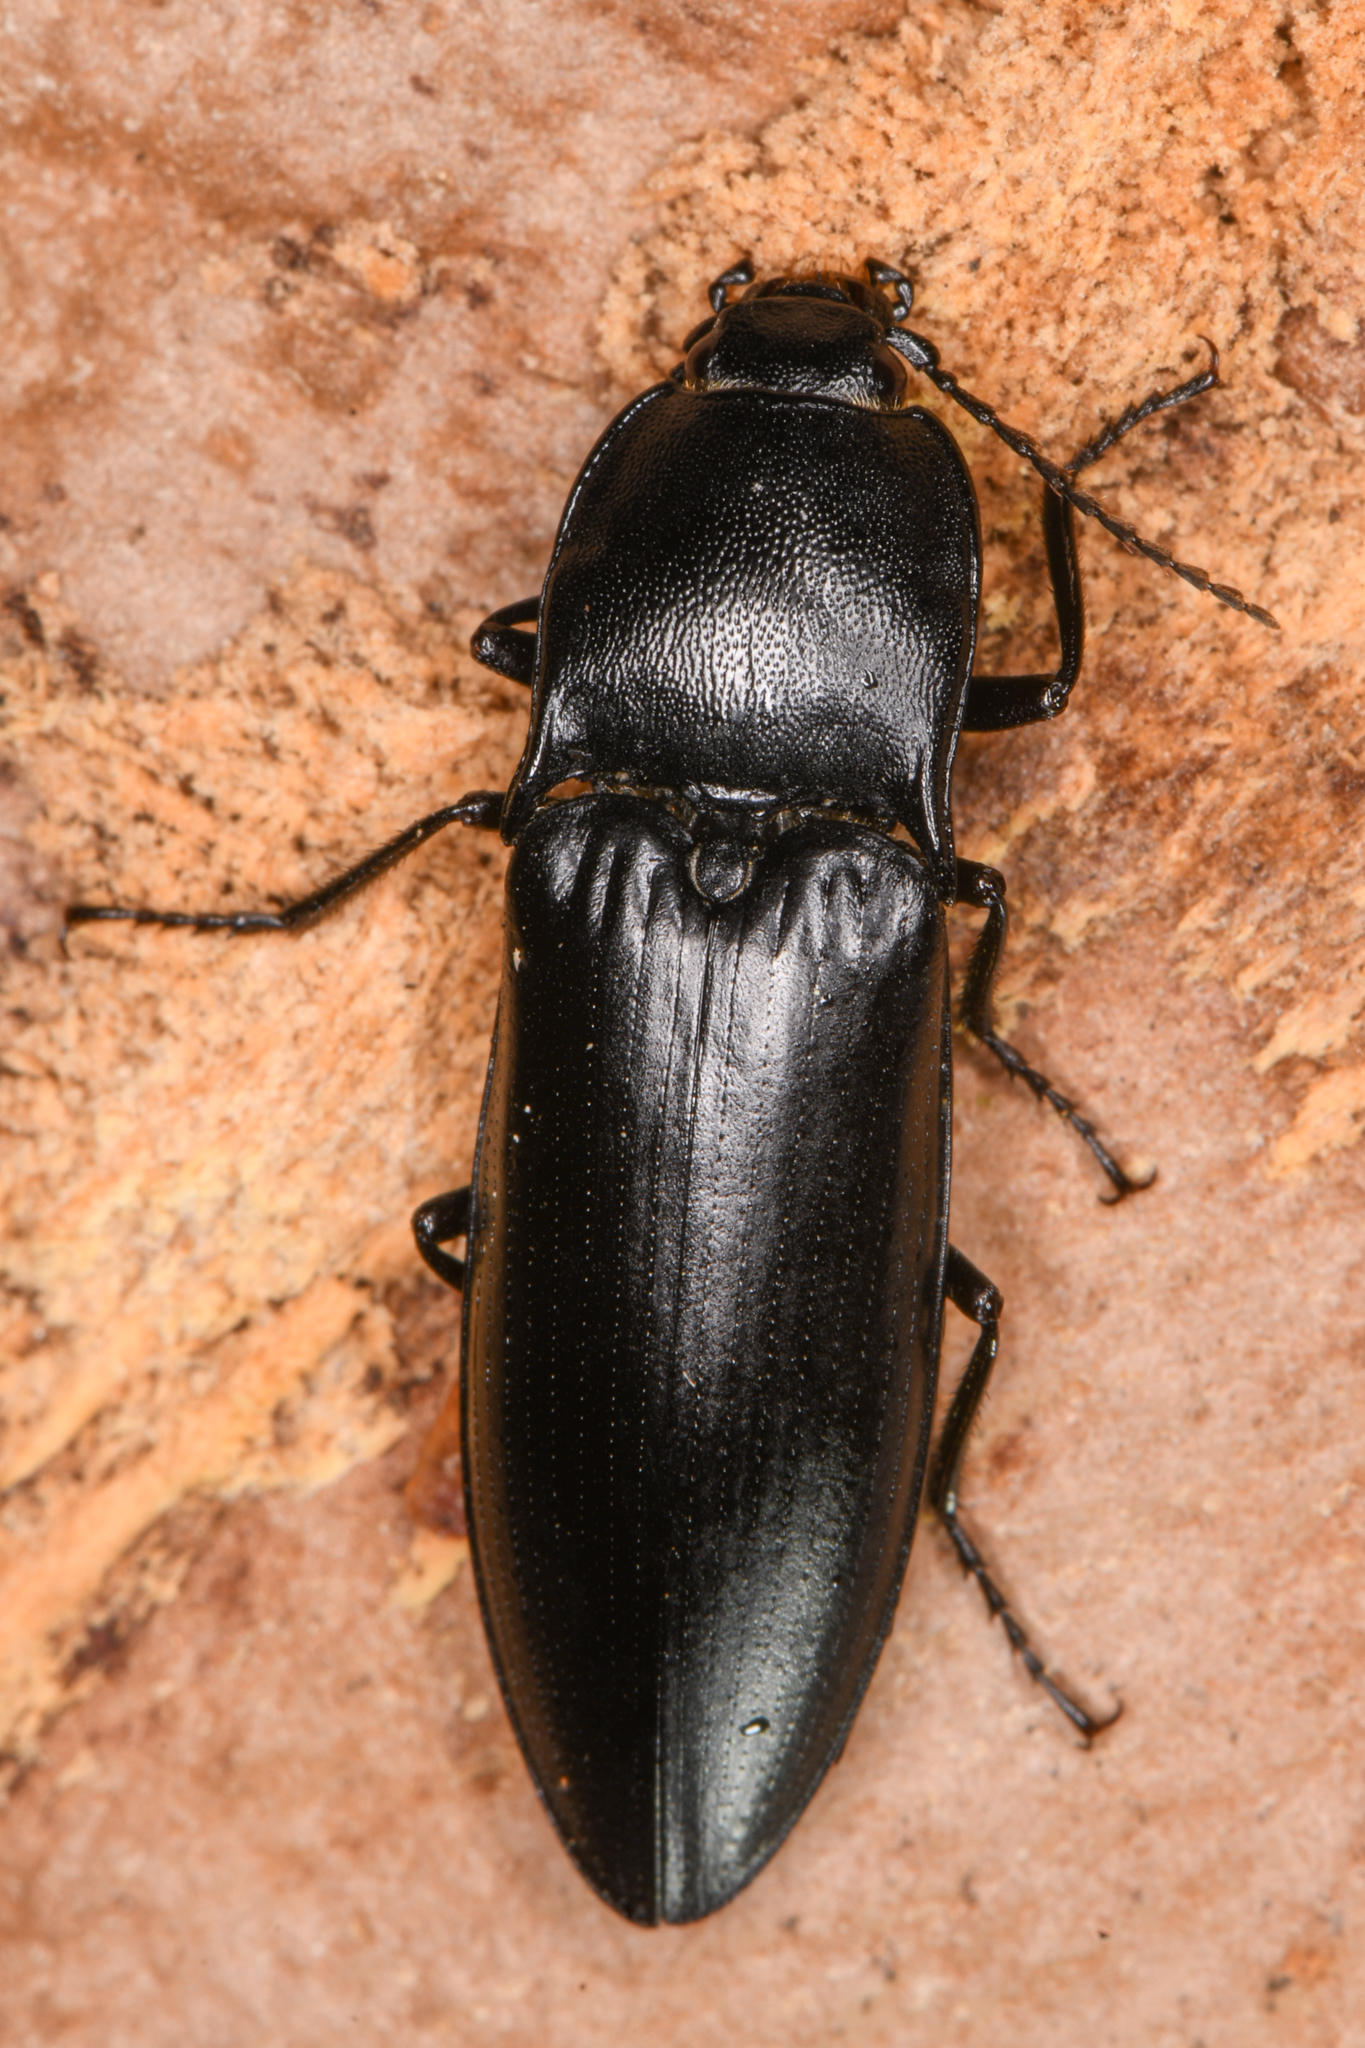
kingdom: Animalia
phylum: Arthropoda
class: Insecta
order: Coleoptera
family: Elateridae
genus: Melanactes
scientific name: Melanactes
